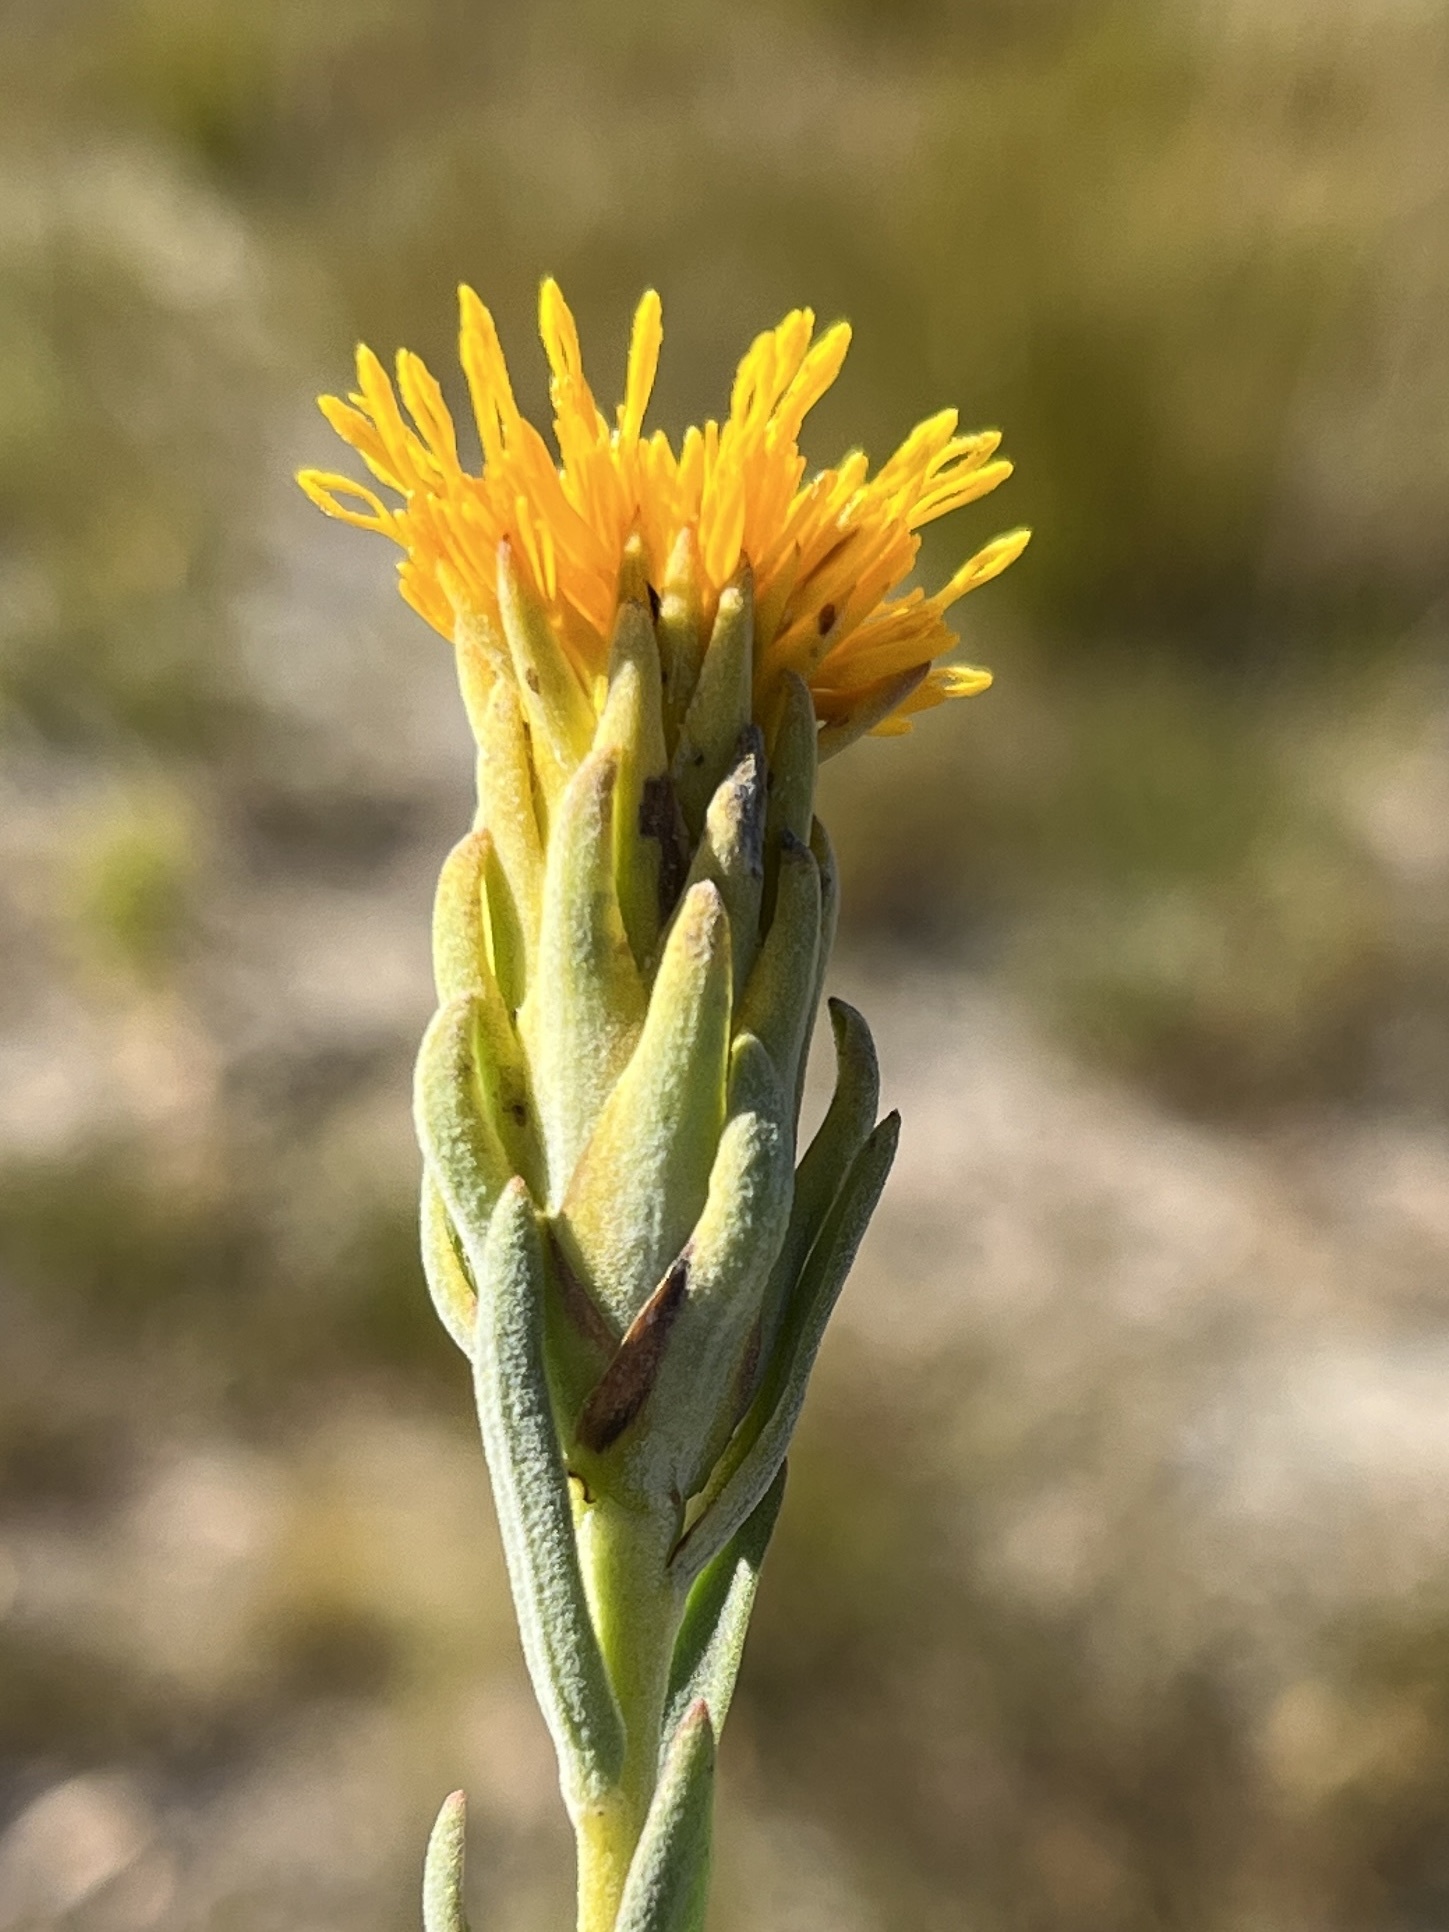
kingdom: Plantae
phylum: Tracheophyta
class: Magnoliopsida
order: Asterales
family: Asteraceae
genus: Pteronia
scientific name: Pteronia scabra
